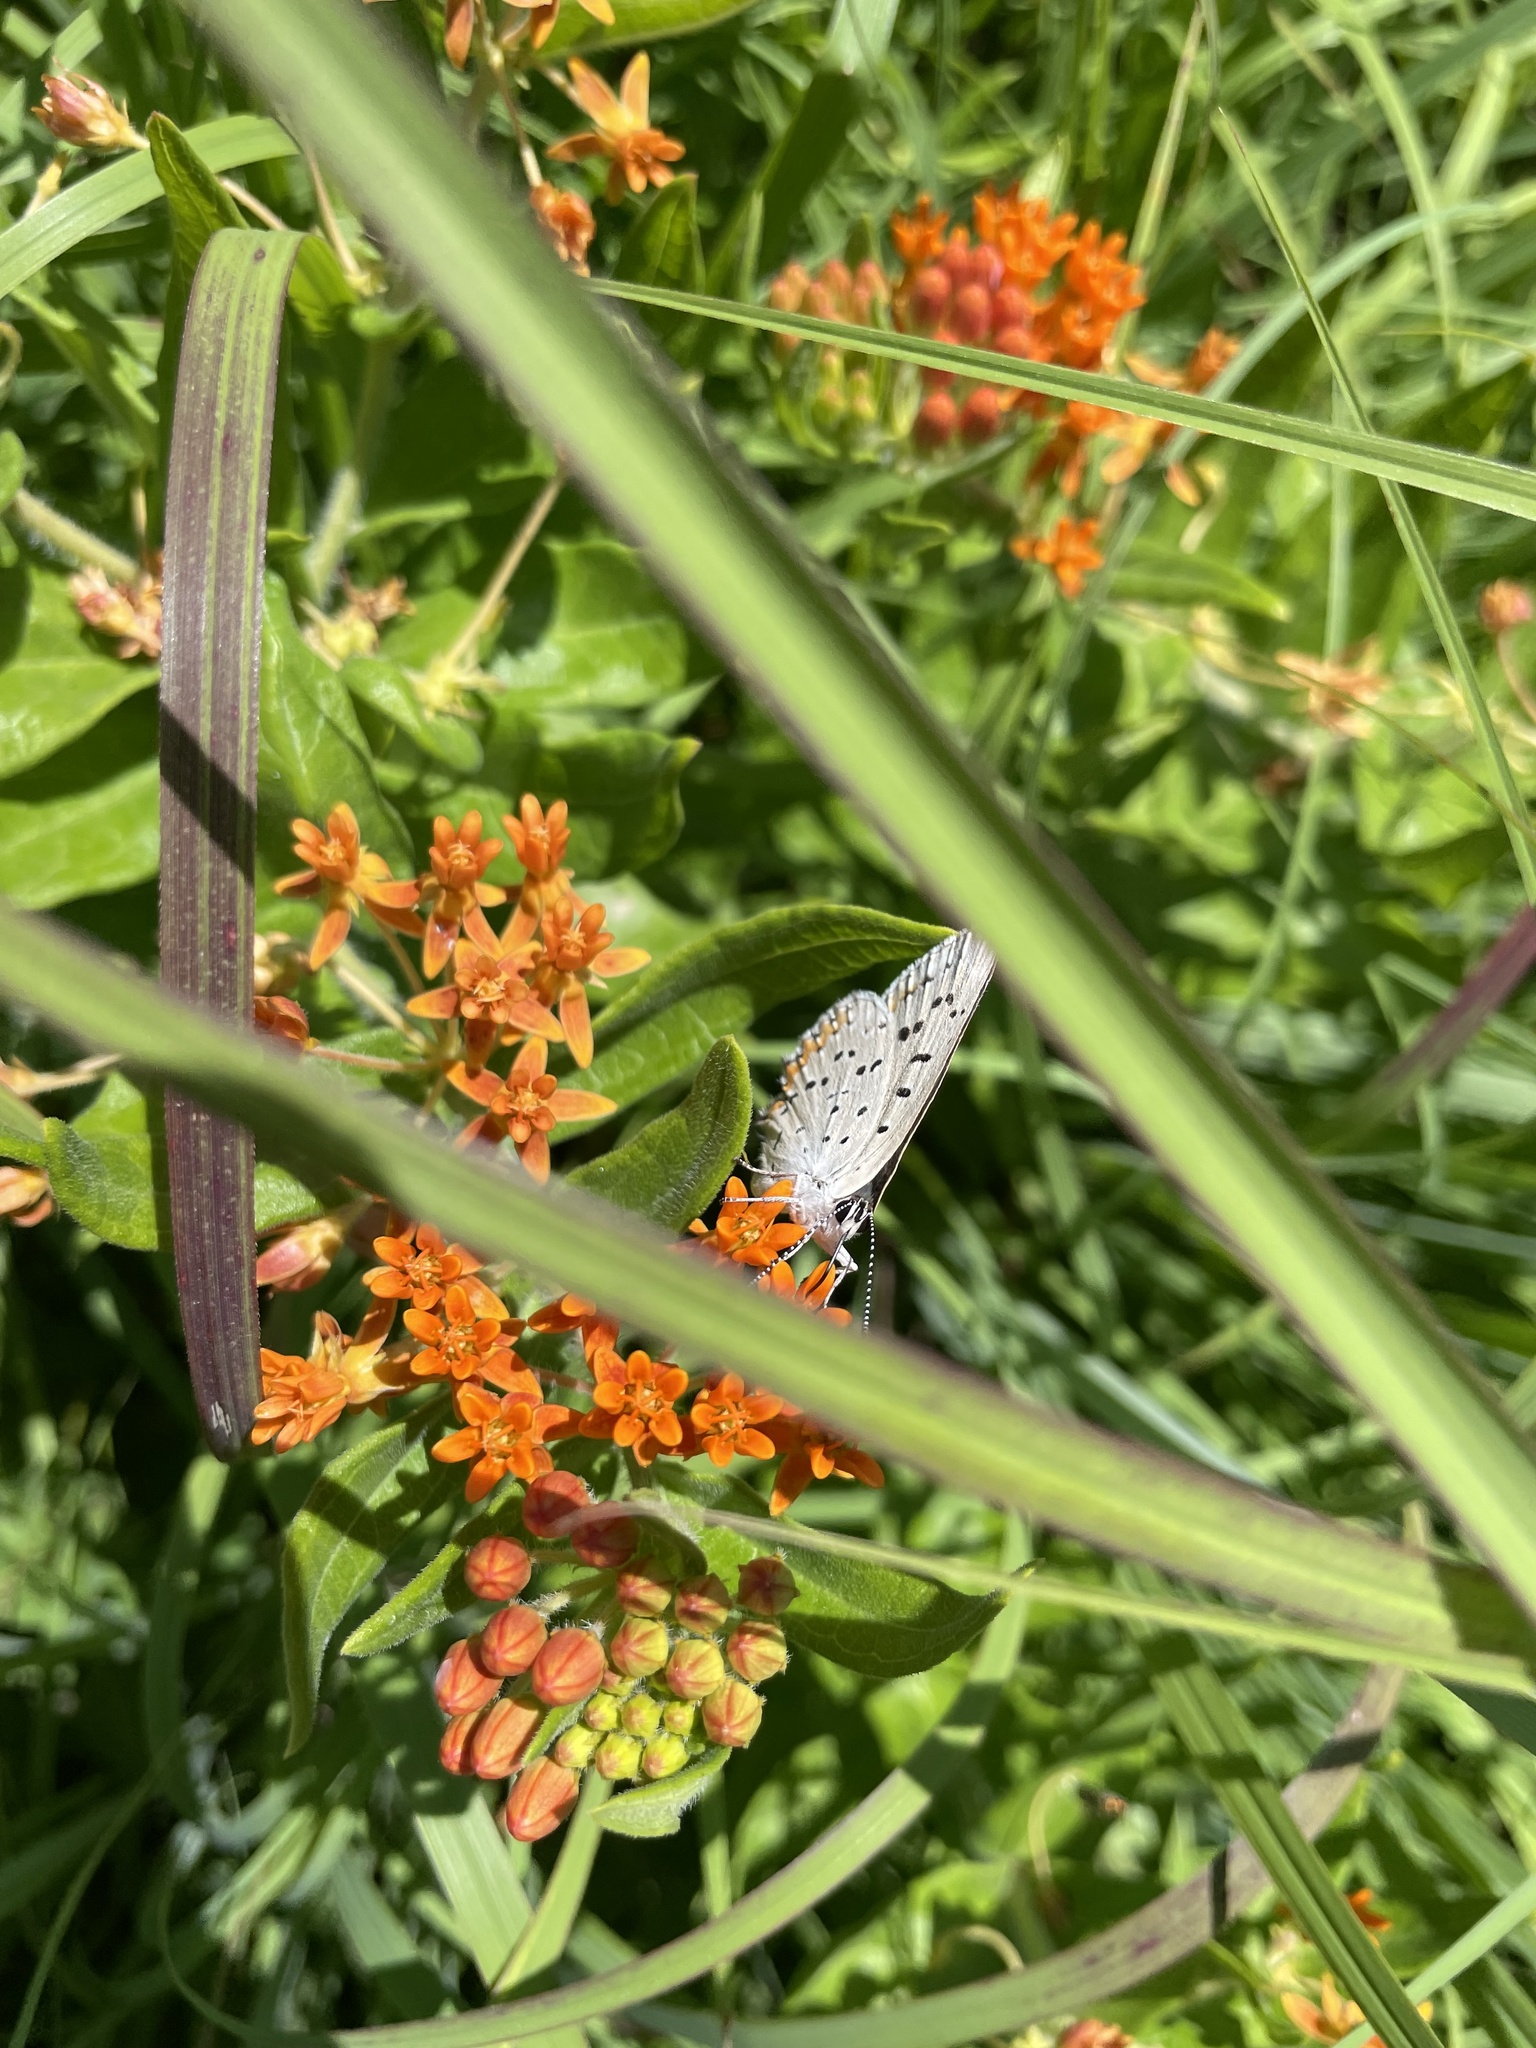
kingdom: Animalia
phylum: Arthropoda
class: Insecta
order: Lepidoptera
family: Lycaenidae
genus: Tharsalea
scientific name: Tharsalea dione
